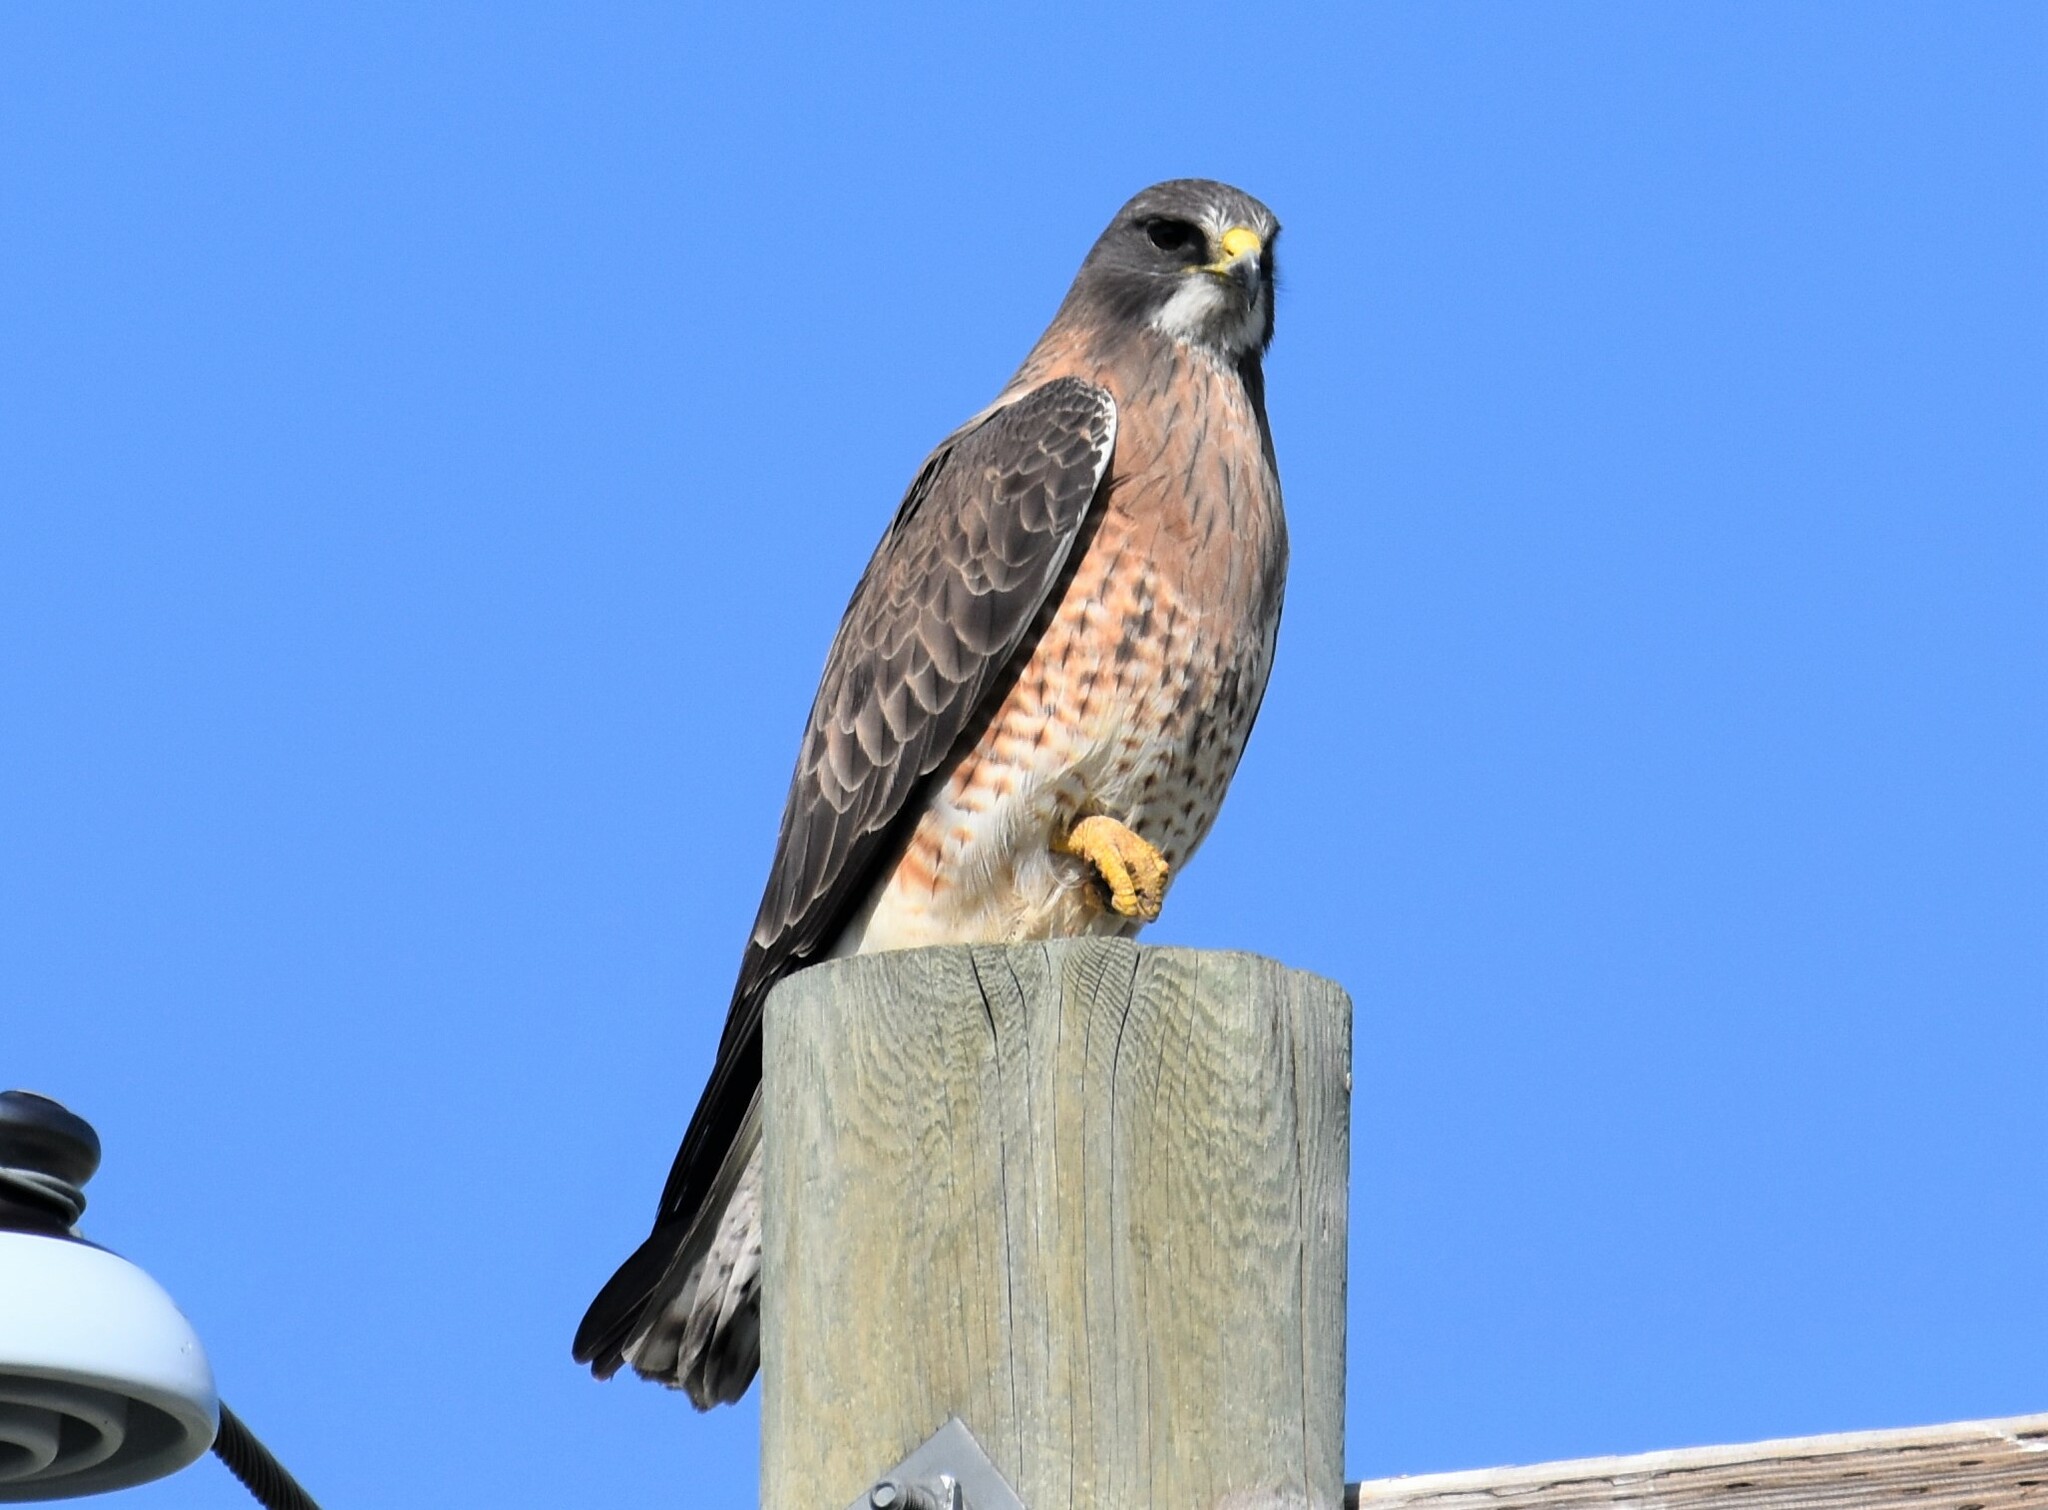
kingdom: Animalia
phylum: Chordata
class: Aves
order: Accipitriformes
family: Accipitridae
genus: Buteo
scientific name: Buteo swainsoni
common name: Swainson's hawk
